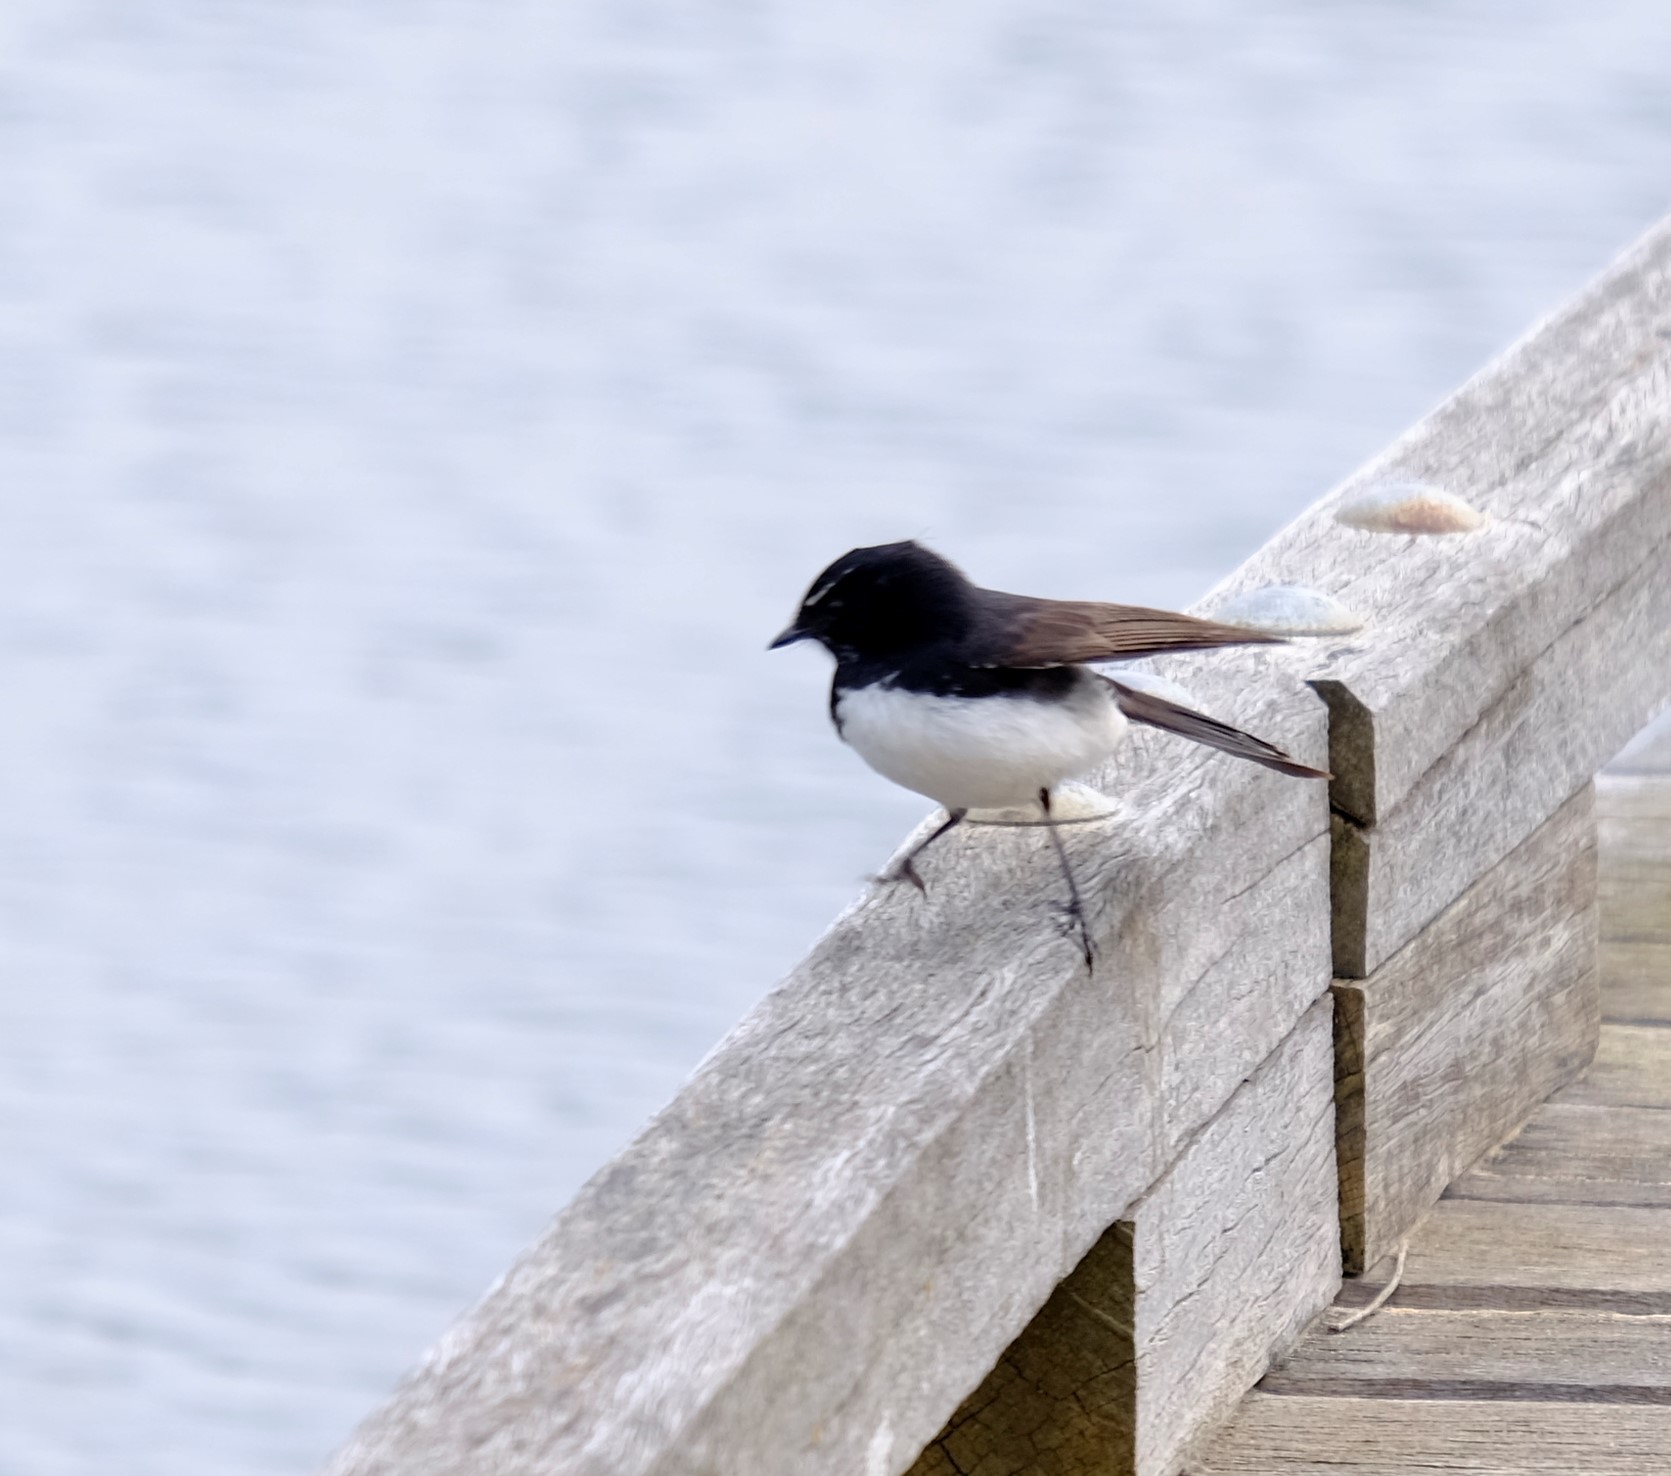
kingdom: Animalia
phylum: Chordata
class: Aves
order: Passeriformes
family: Rhipiduridae
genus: Rhipidura
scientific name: Rhipidura leucophrys
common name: Willie wagtail
